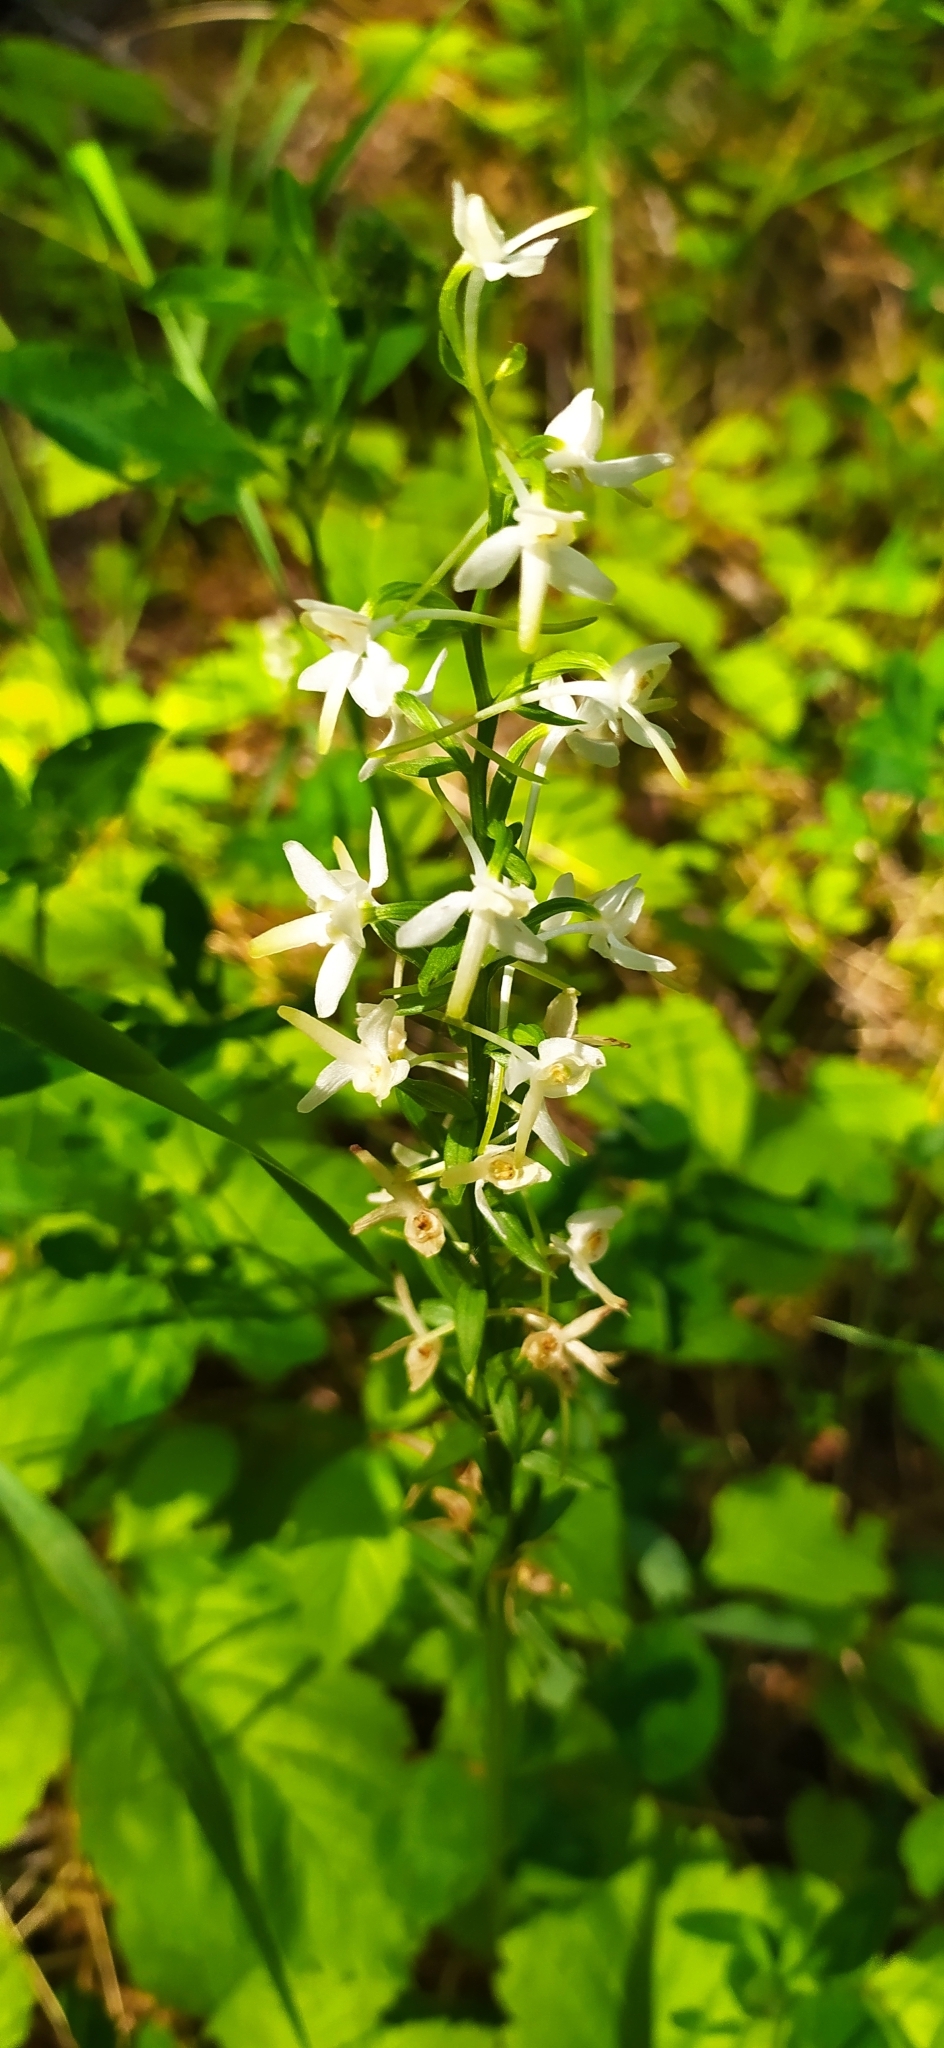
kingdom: Plantae
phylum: Tracheophyta
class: Liliopsida
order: Asparagales
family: Orchidaceae
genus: Platanthera
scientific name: Platanthera bifolia
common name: Lesser butterfly-orchid
